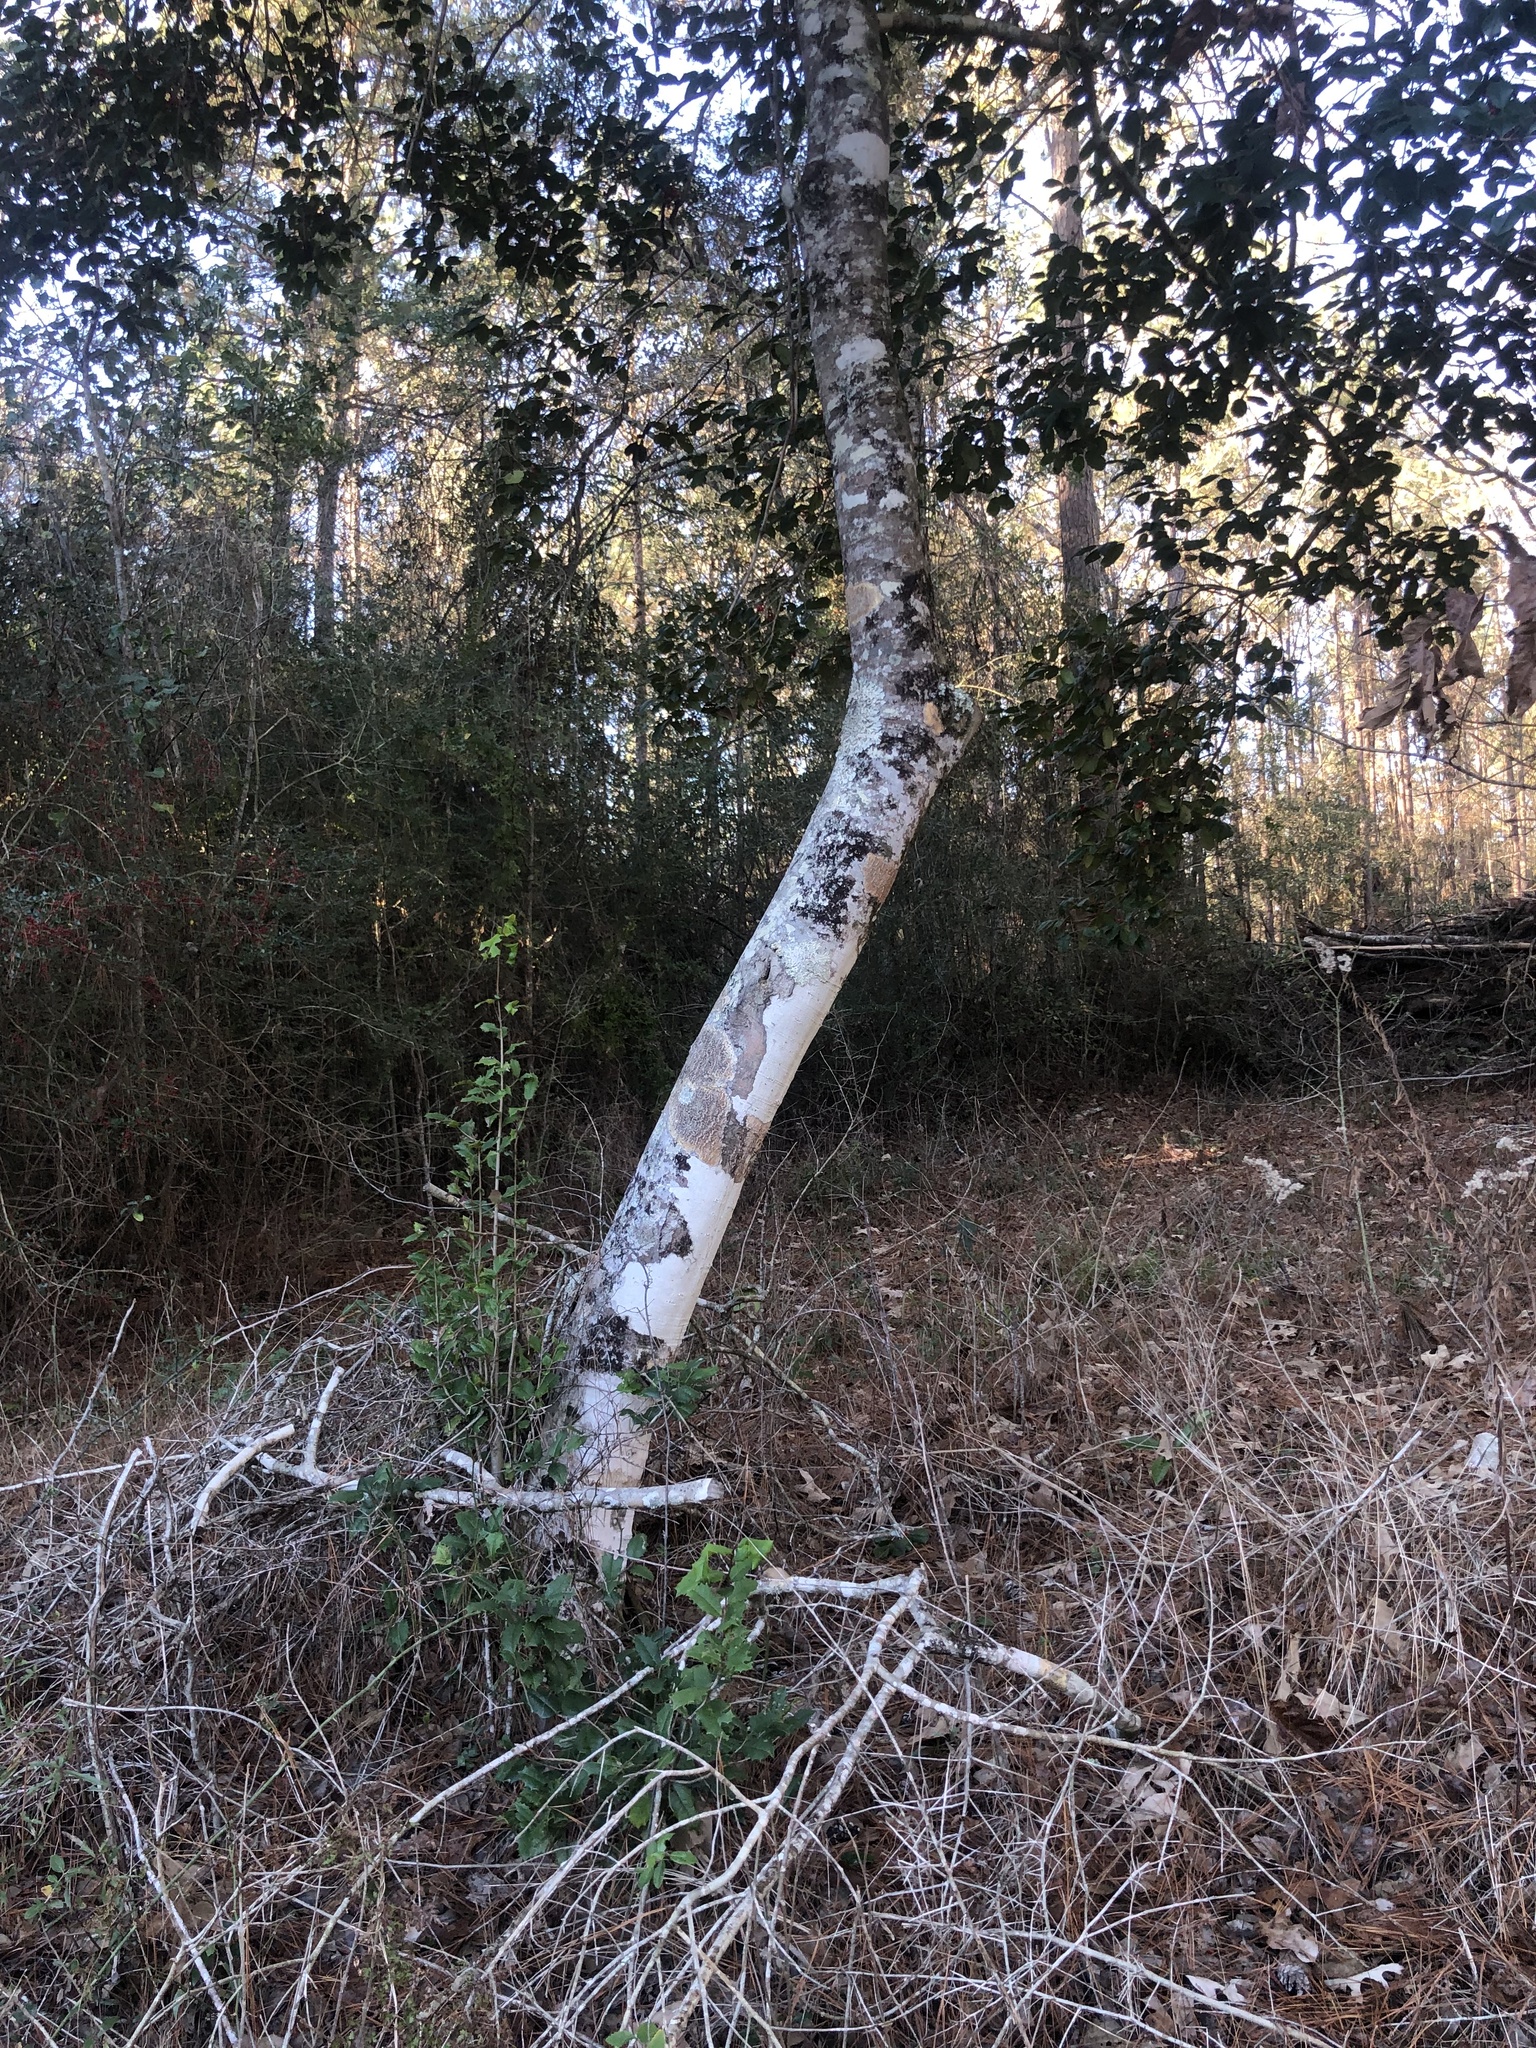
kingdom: Plantae
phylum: Tracheophyta
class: Magnoliopsida
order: Aquifoliales
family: Aquifoliaceae
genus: Ilex
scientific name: Ilex opaca
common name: American holly
